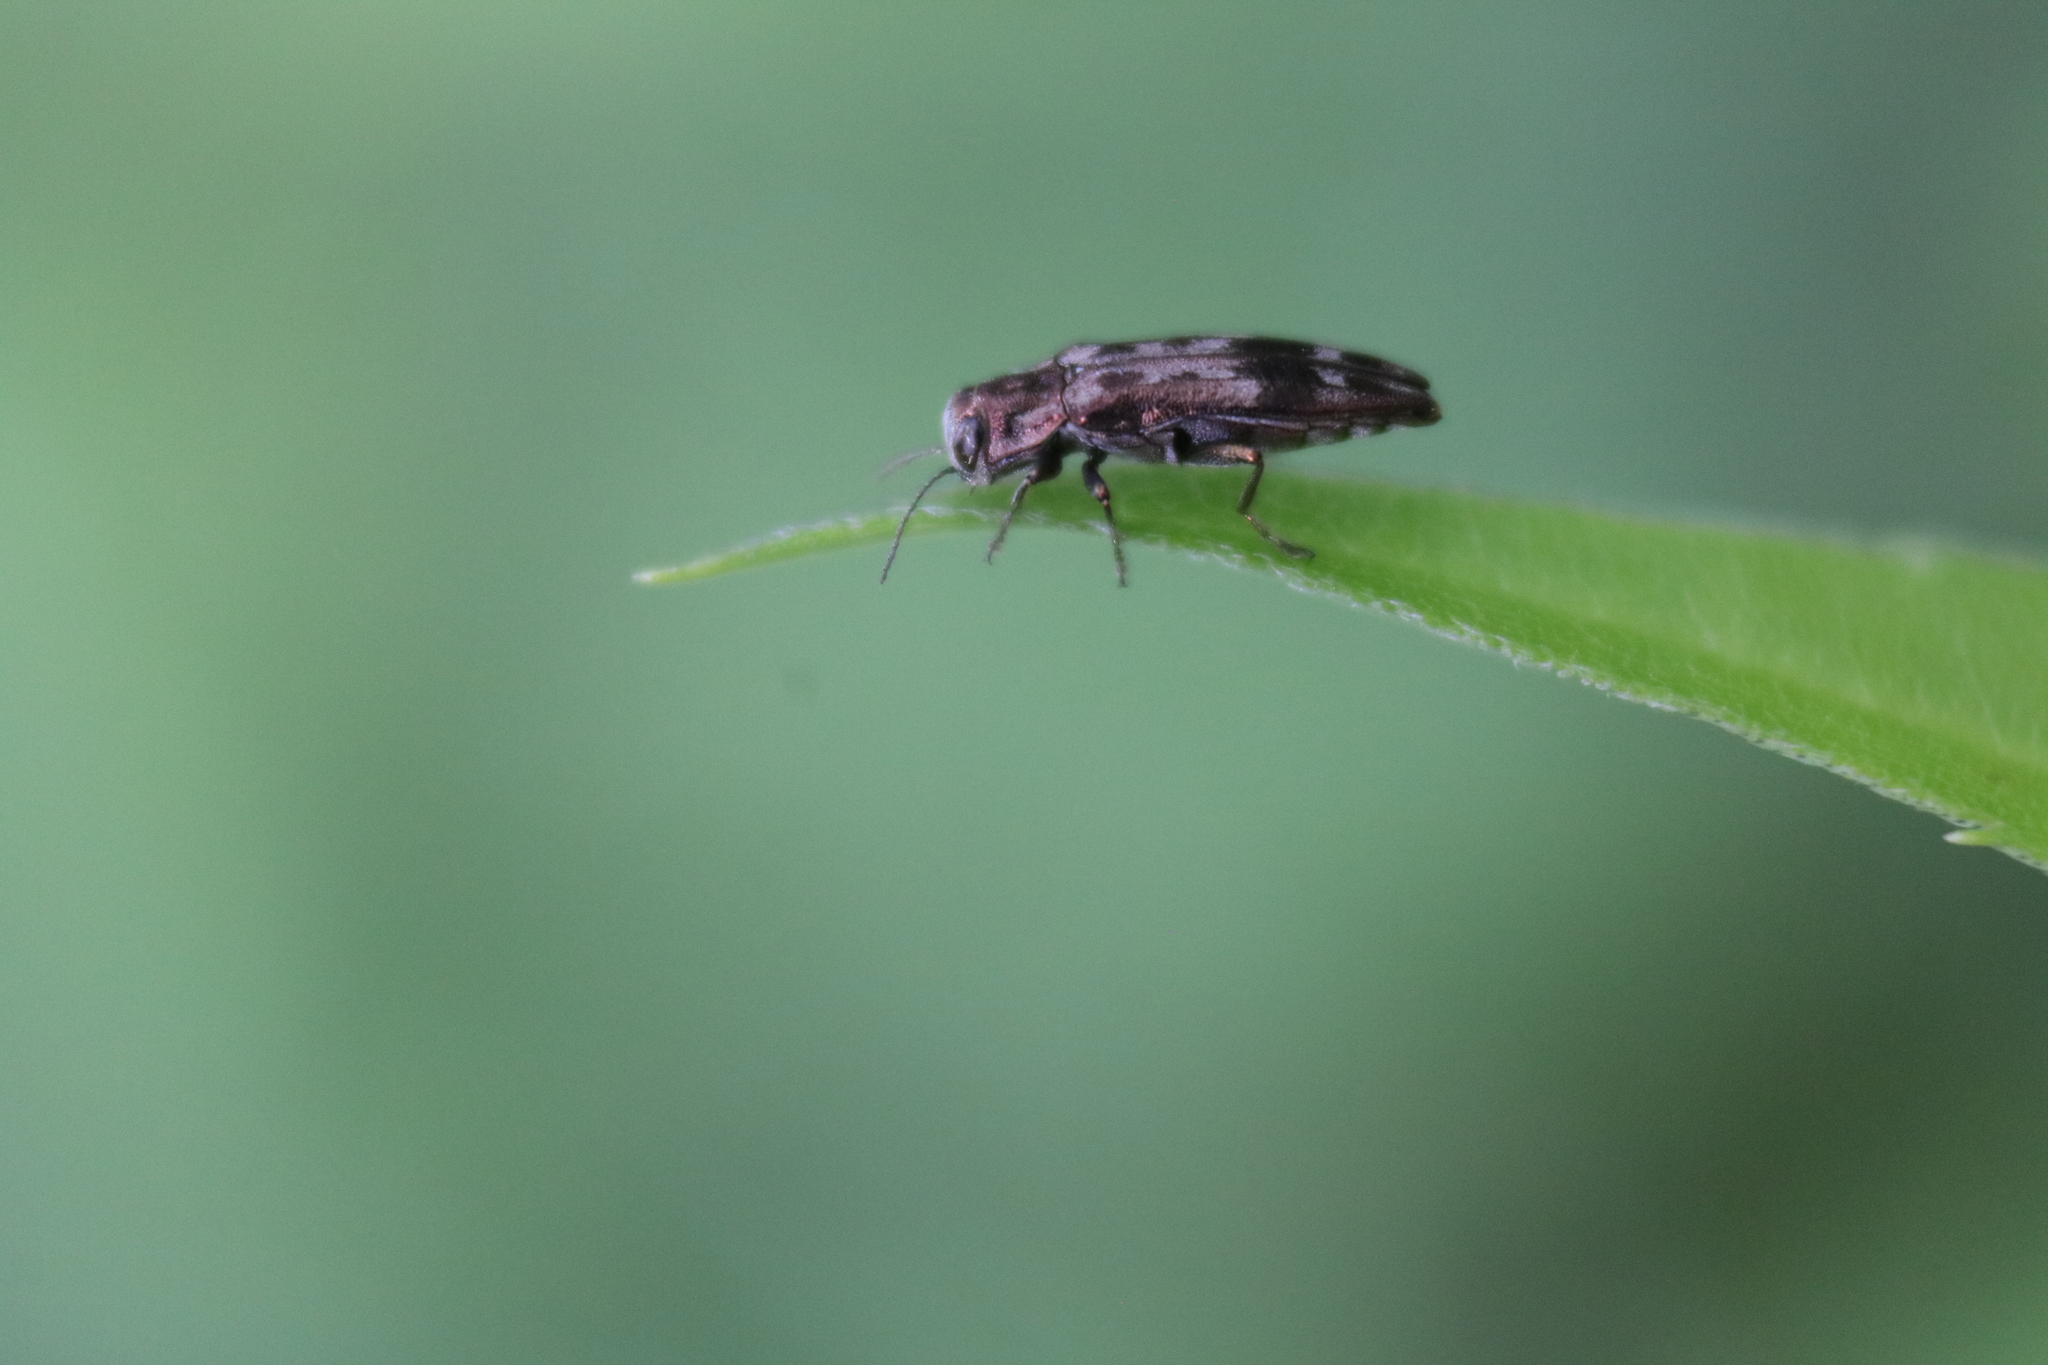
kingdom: Animalia
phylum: Arthropoda
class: Insecta
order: Coleoptera
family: Buprestidae
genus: Agrilus
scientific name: Agrilus lecontei
